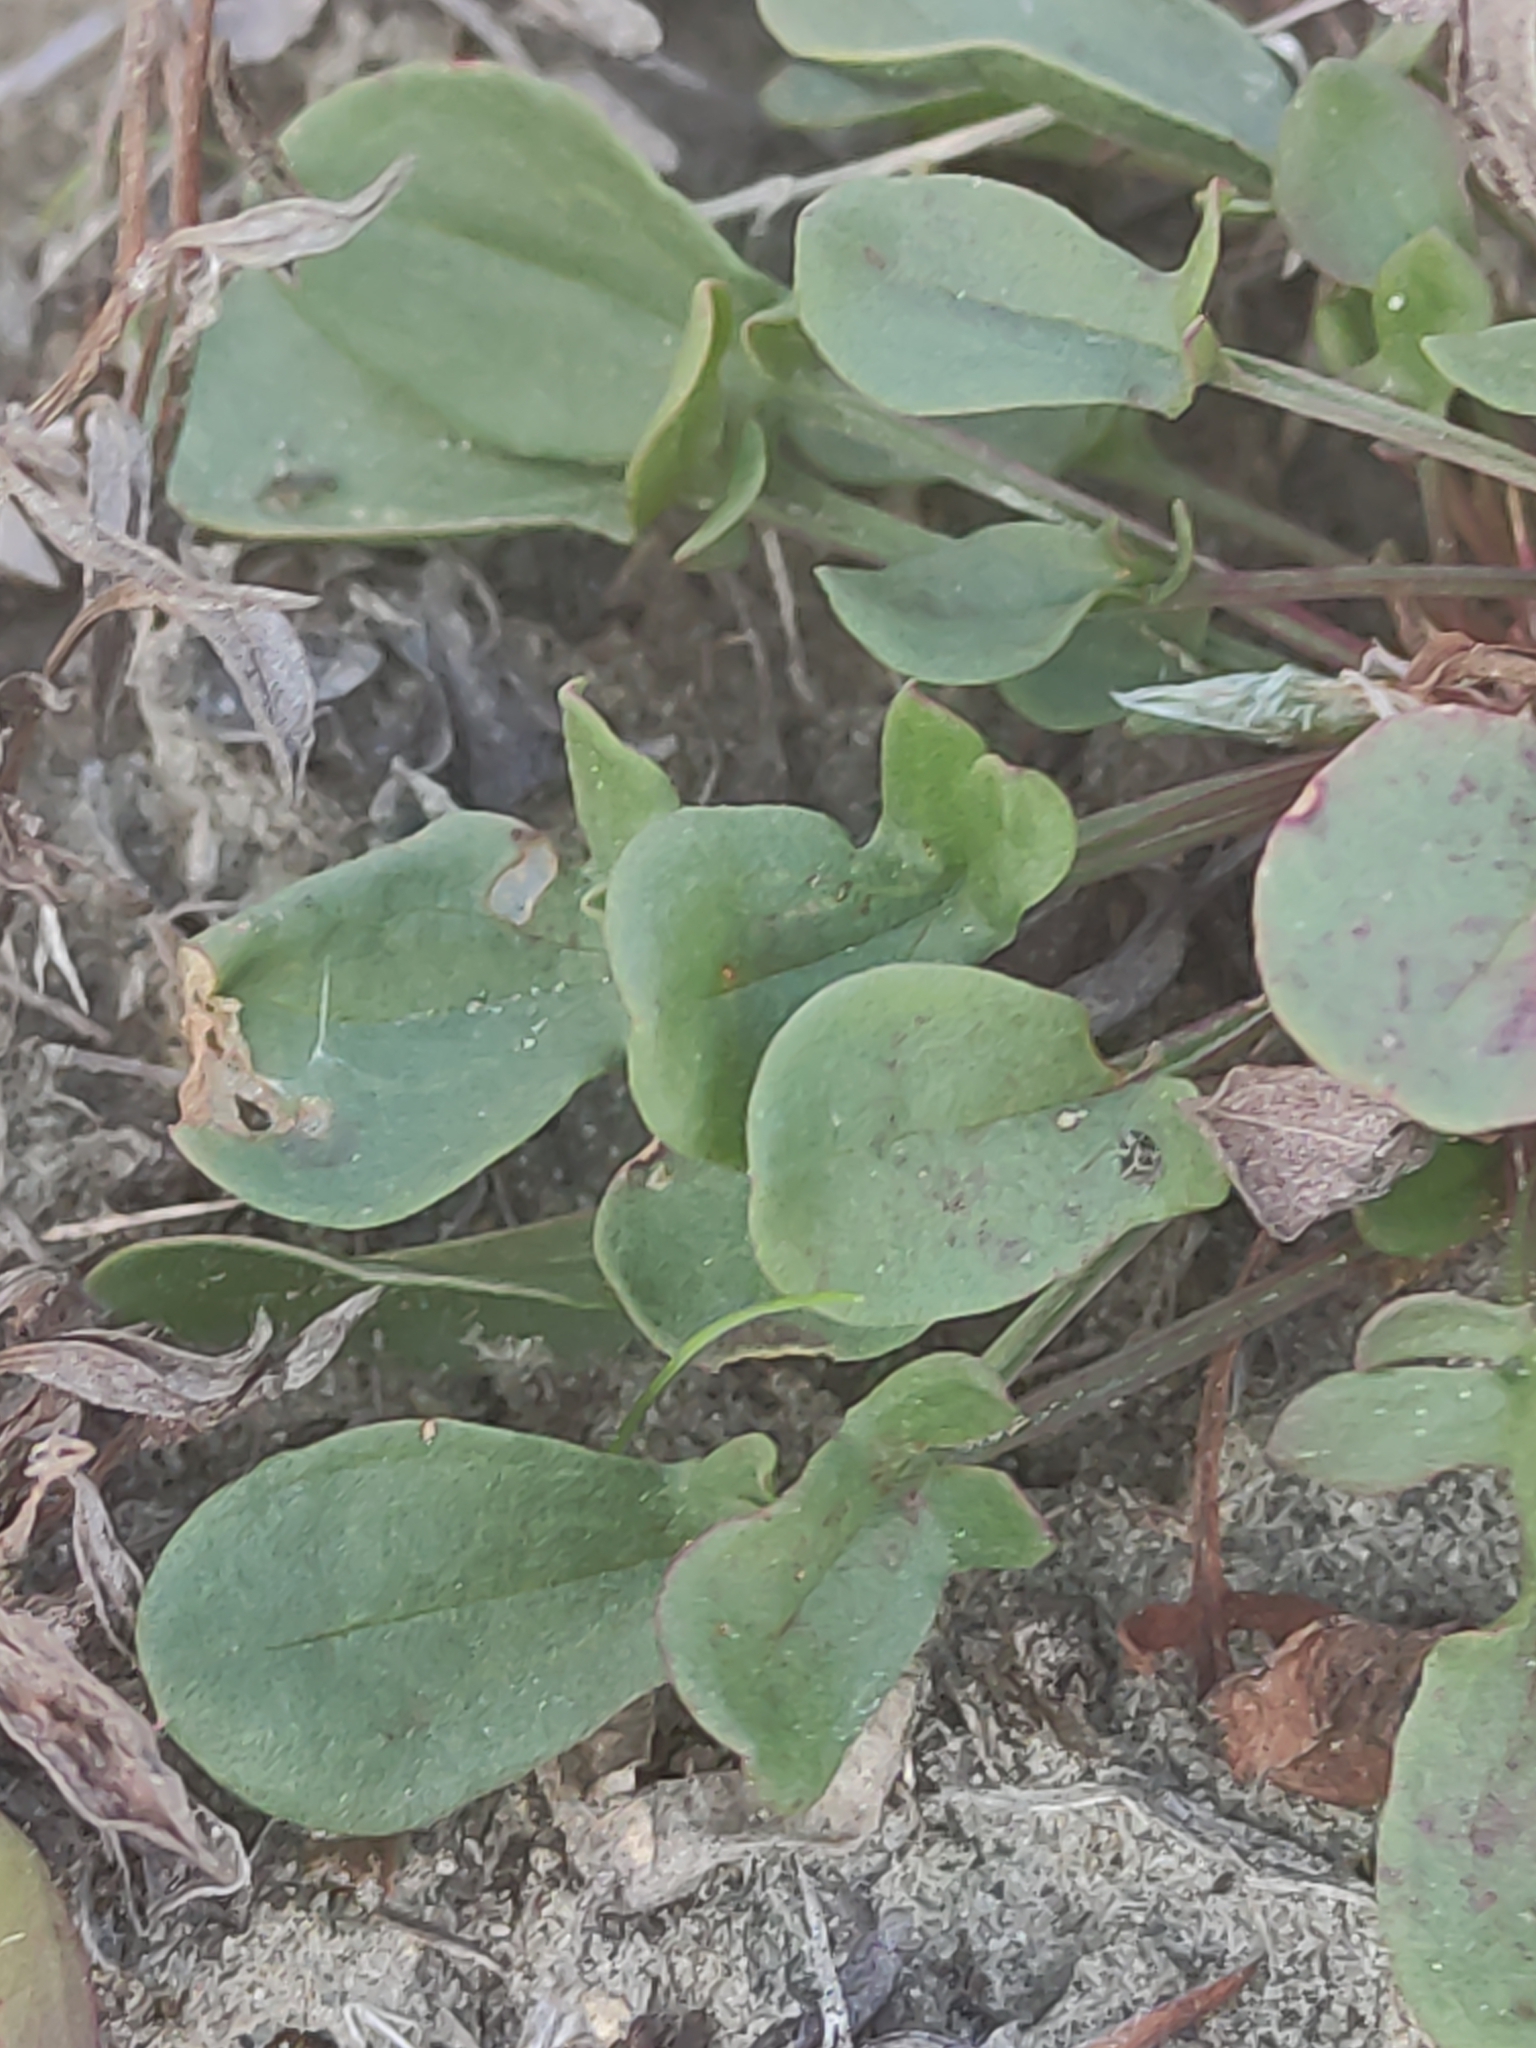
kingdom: Plantae
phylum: Tracheophyta
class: Magnoliopsida
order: Caryophyllales
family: Polygonaceae
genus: Rumex
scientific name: Rumex acetosella
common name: Common sheep sorrel
